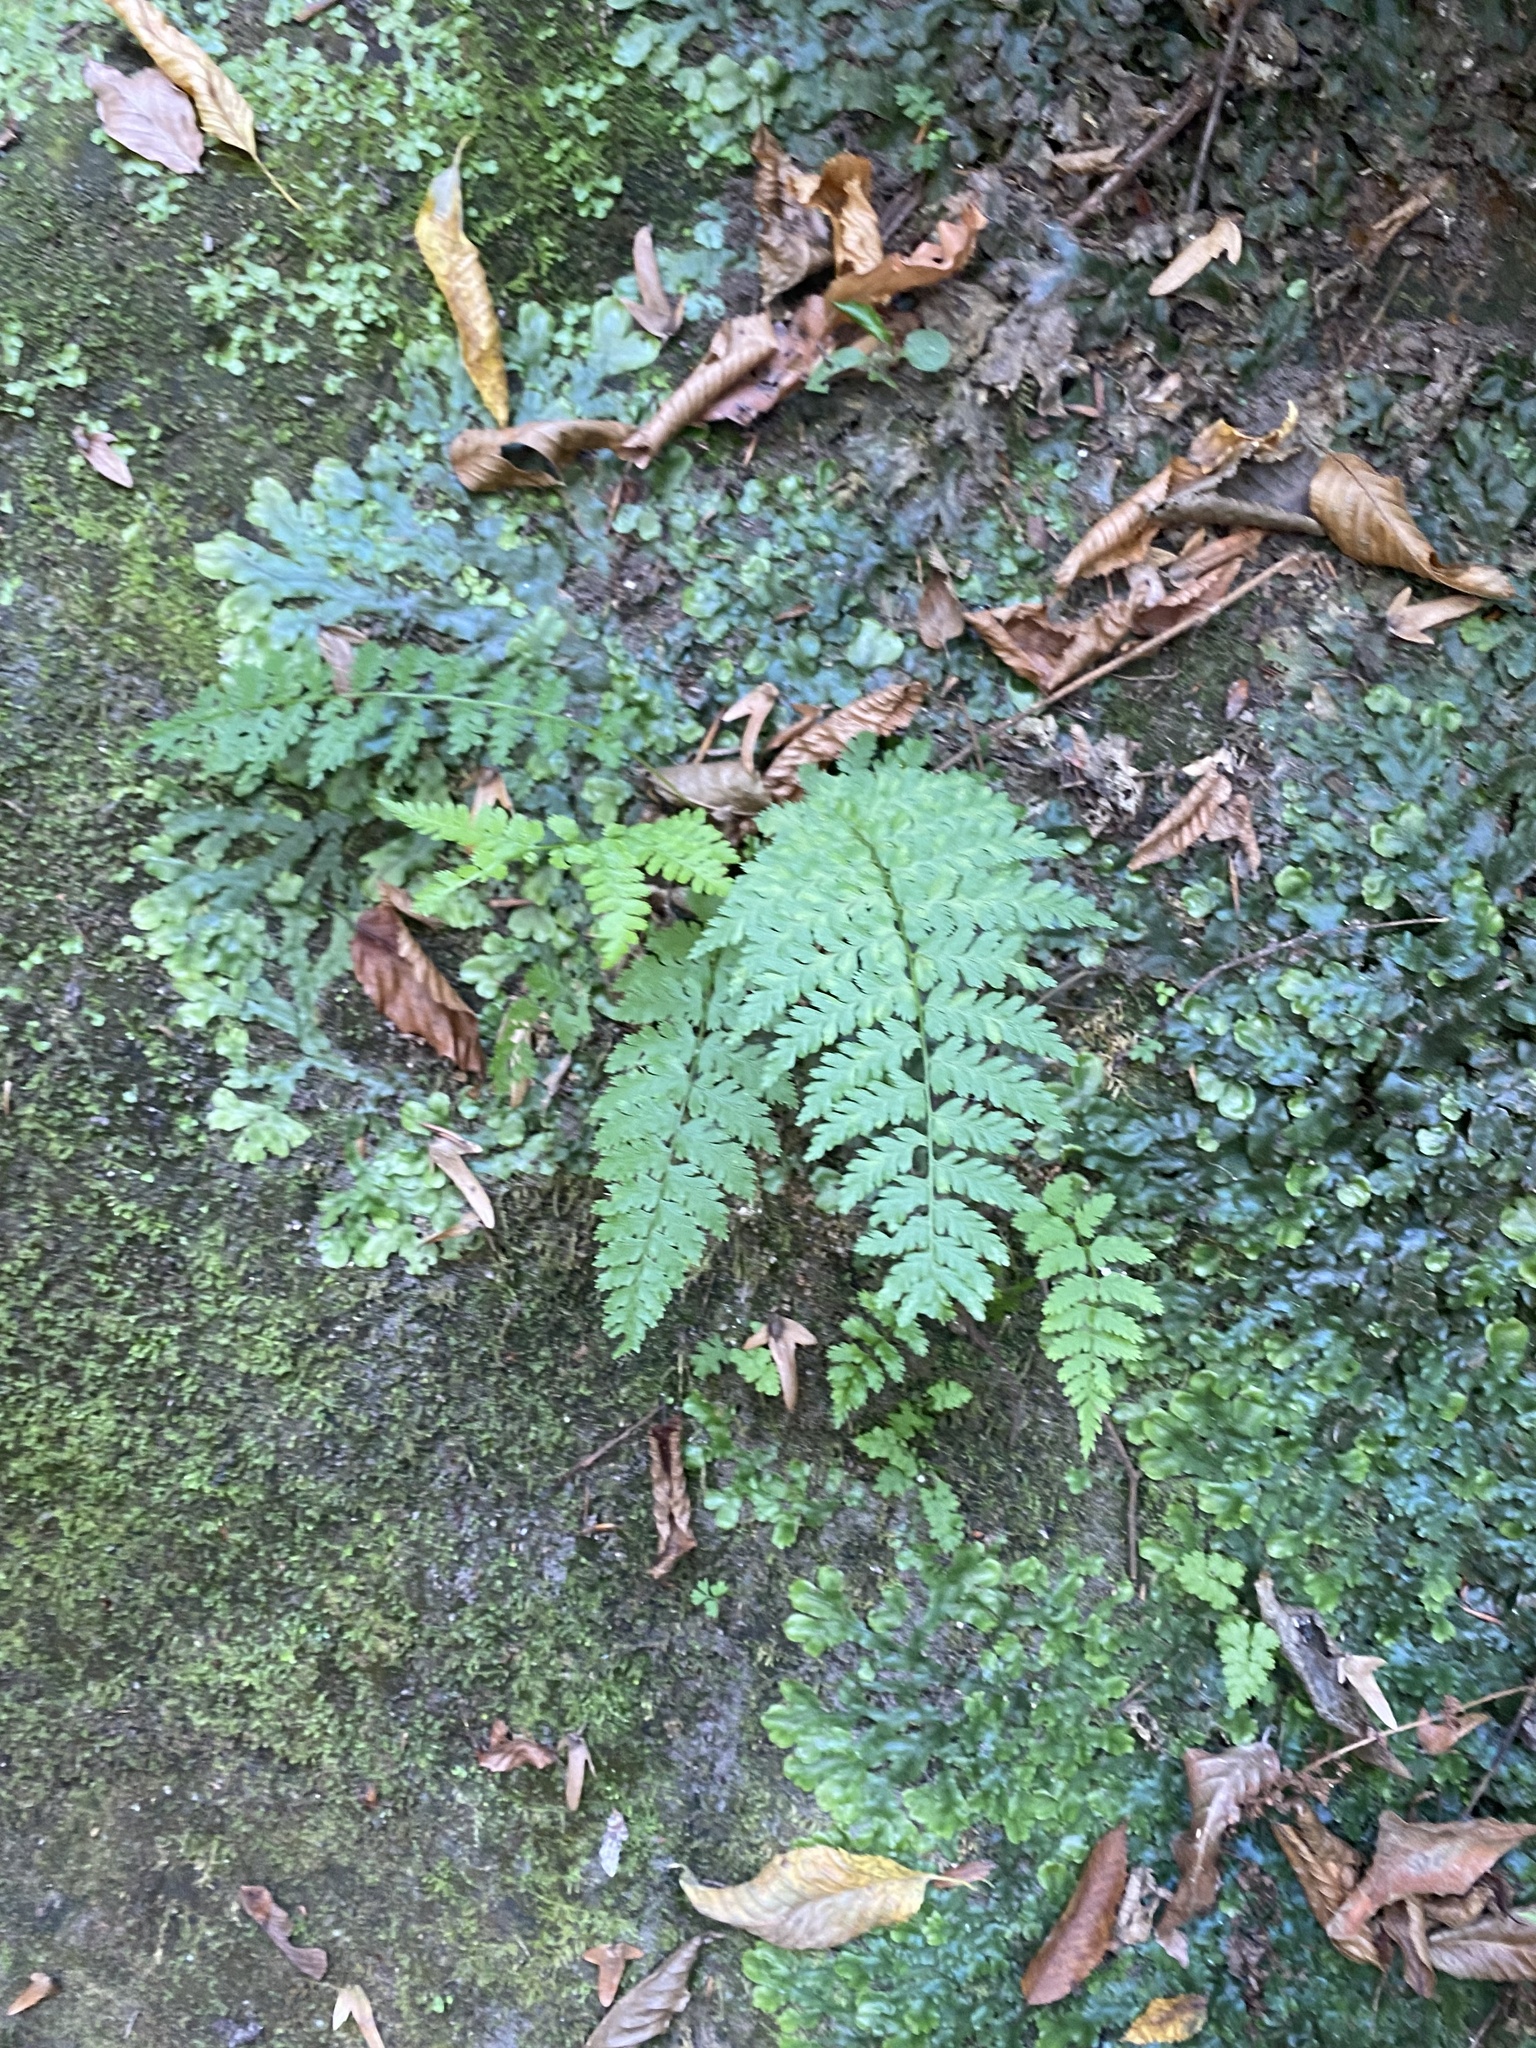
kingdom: Plantae
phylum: Tracheophyta
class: Polypodiopsida
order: Polypodiales
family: Cystopteridaceae
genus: Cystopteris
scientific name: Cystopteris fragilis
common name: Brittle bladder fern
